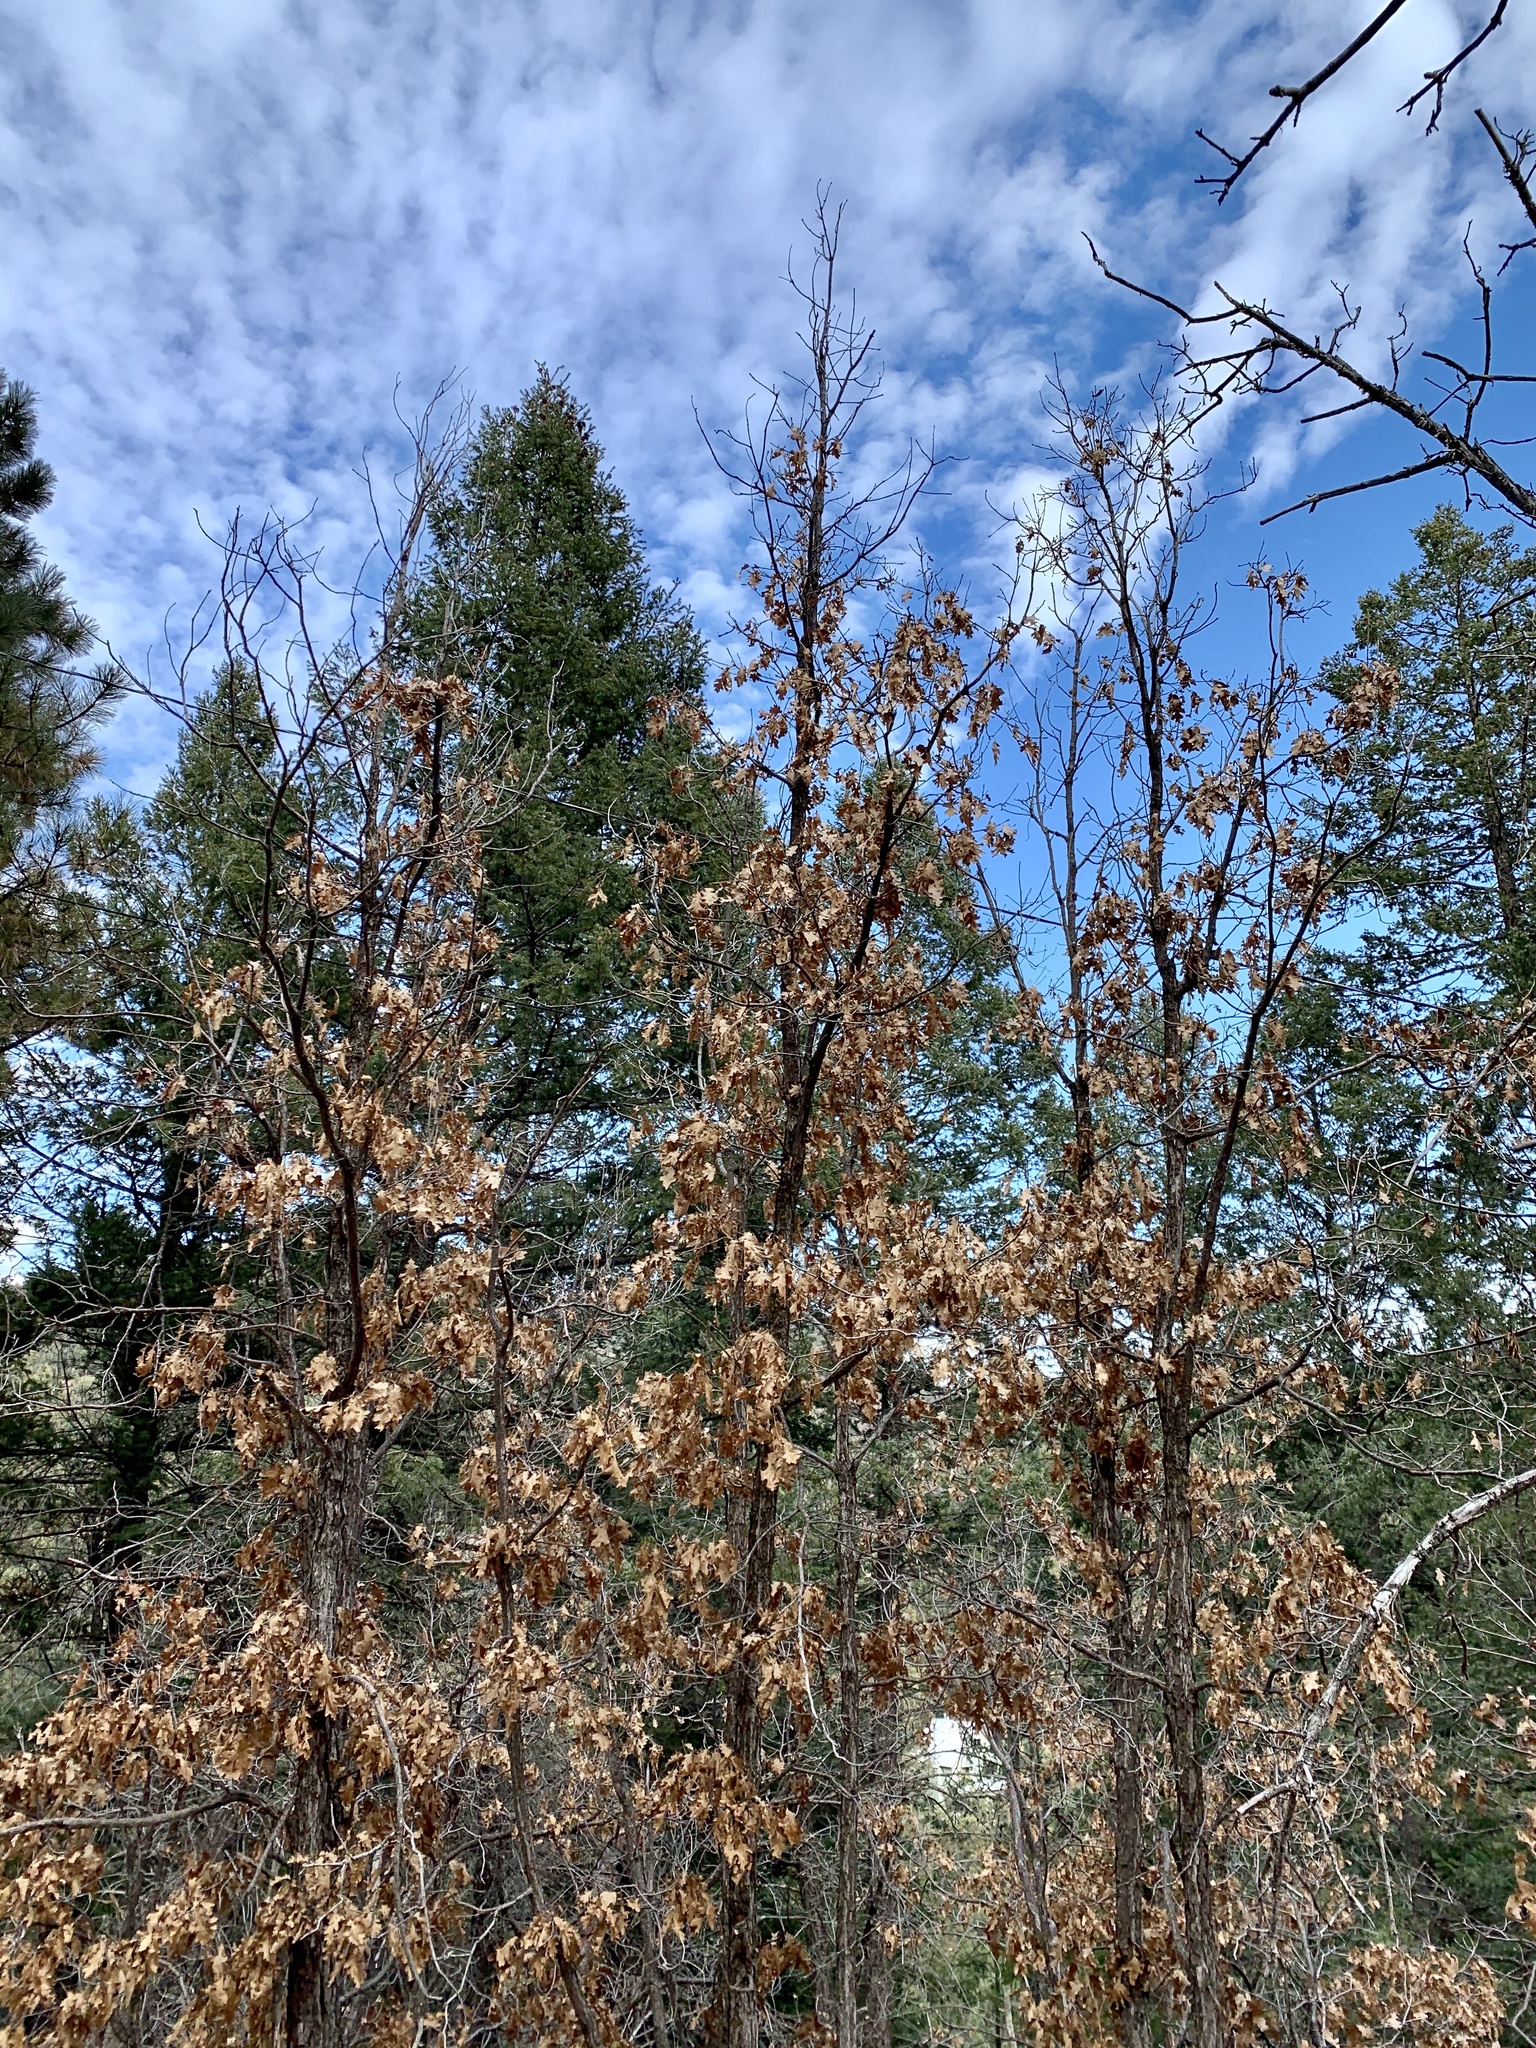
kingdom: Plantae
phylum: Tracheophyta
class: Magnoliopsida
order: Fagales
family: Fagaceae
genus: Quercus
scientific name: Quercus gambelii
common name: Gambel oak
